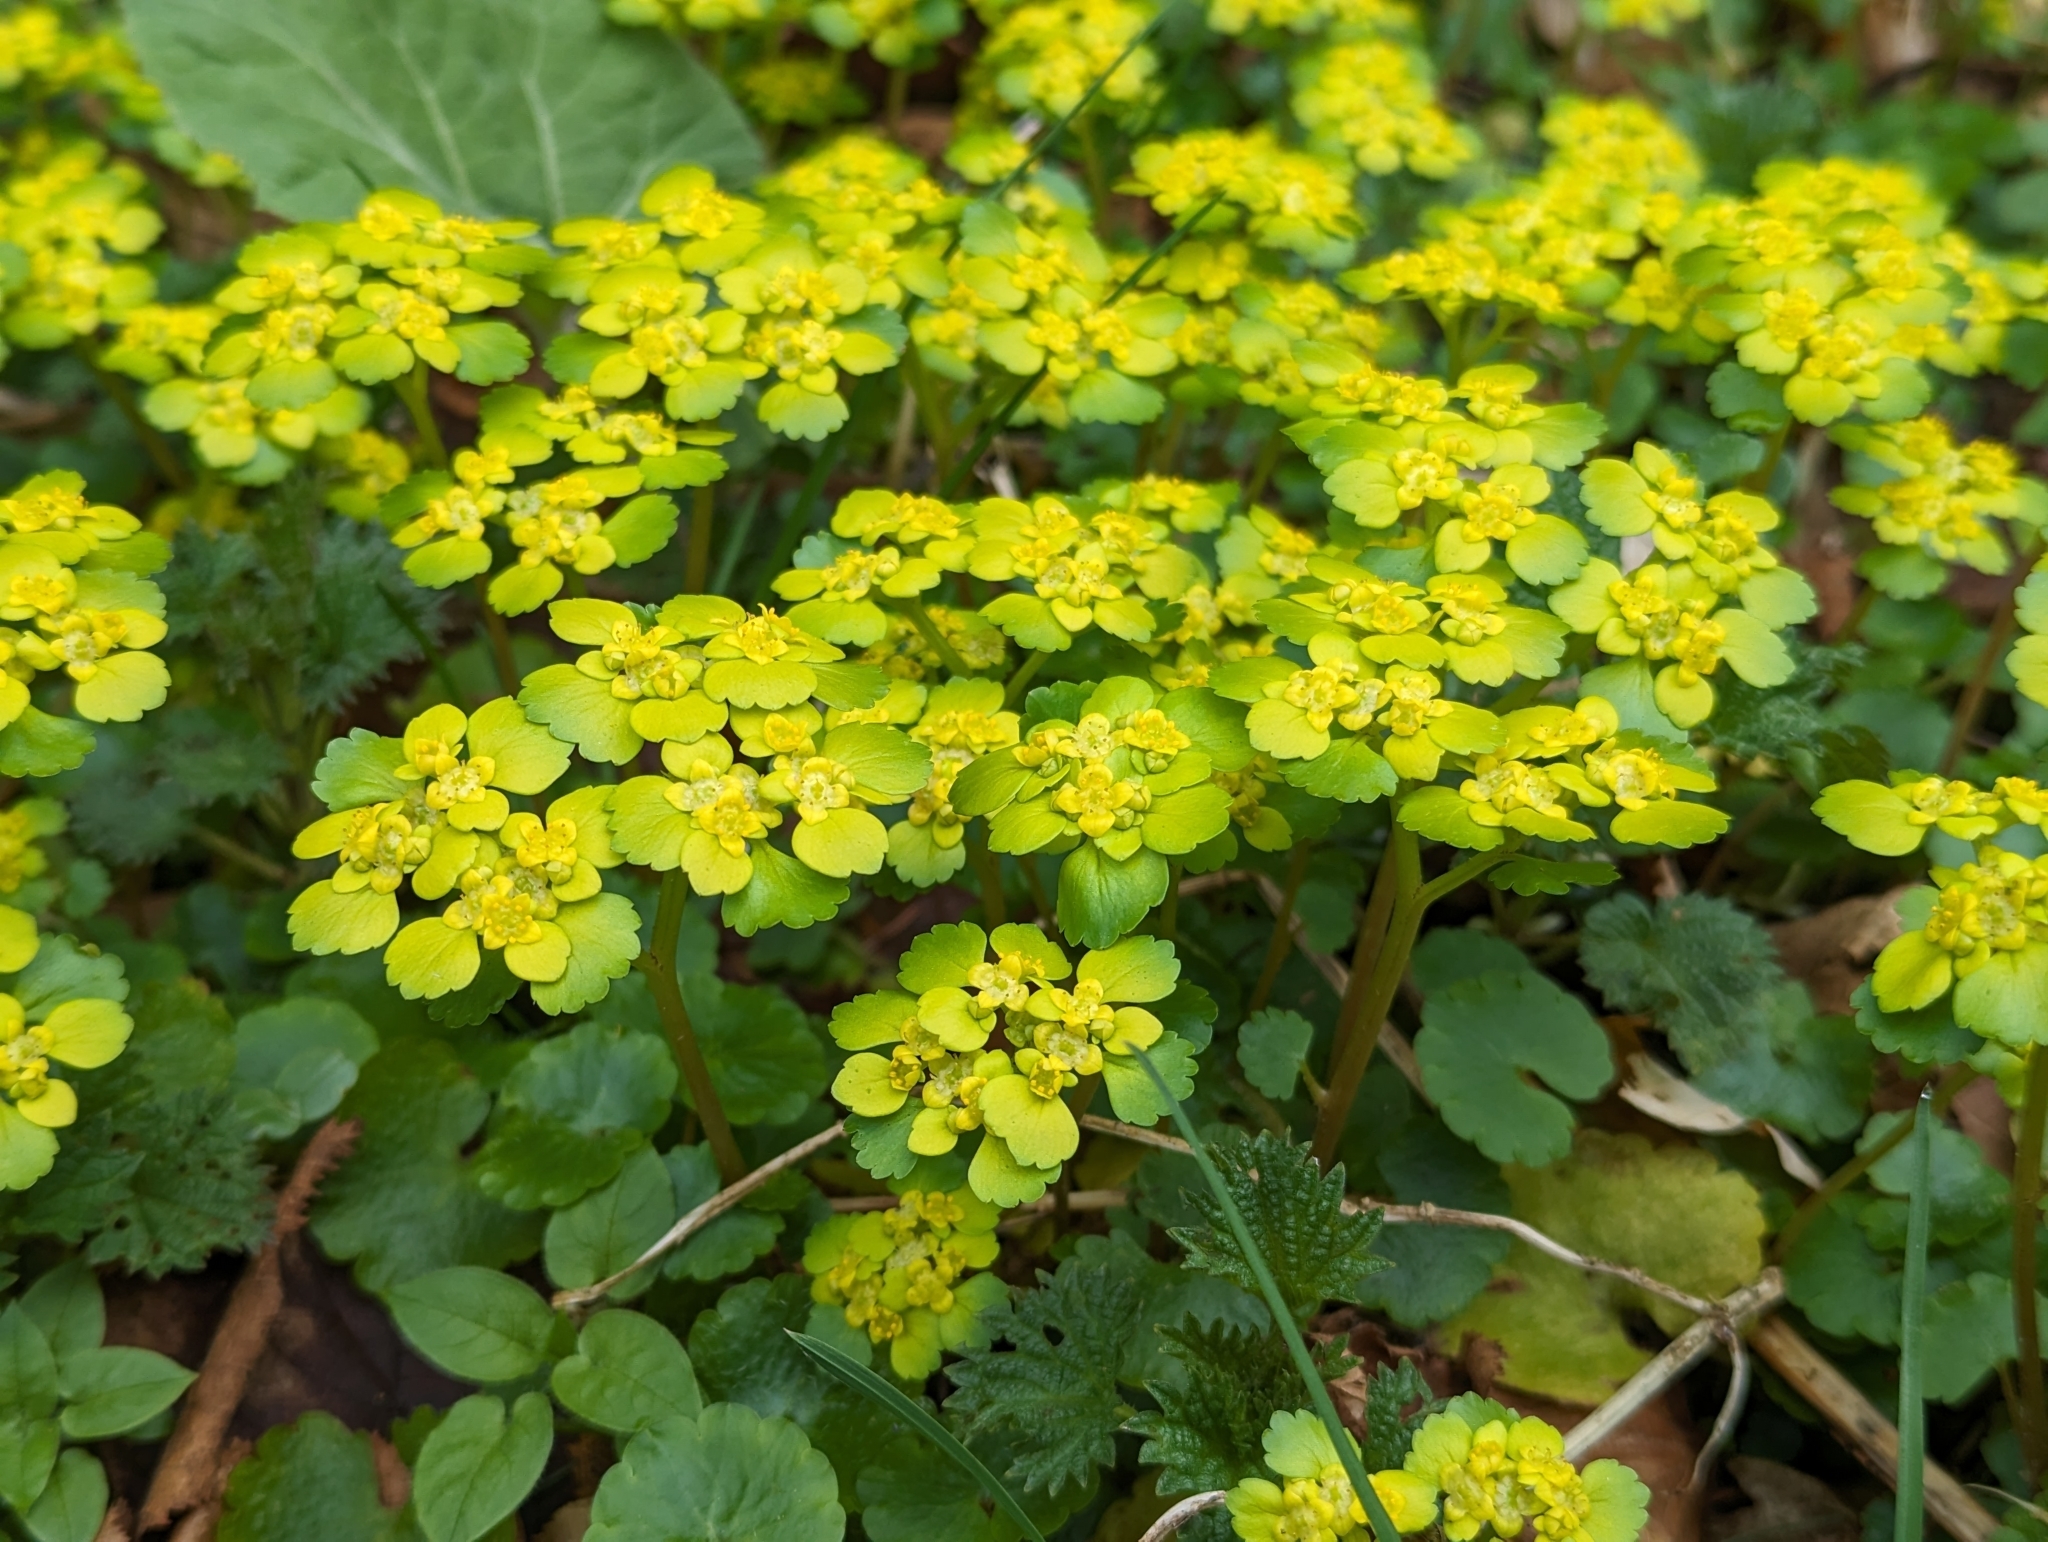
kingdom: Plantae
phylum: Tracheophyta
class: Magnoliopsida
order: Saxifragales
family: Saxifragaceae
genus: Chrysosplenium
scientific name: Chrysosplenium alternifolium
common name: Alternate-leaved golden-saxifrage
